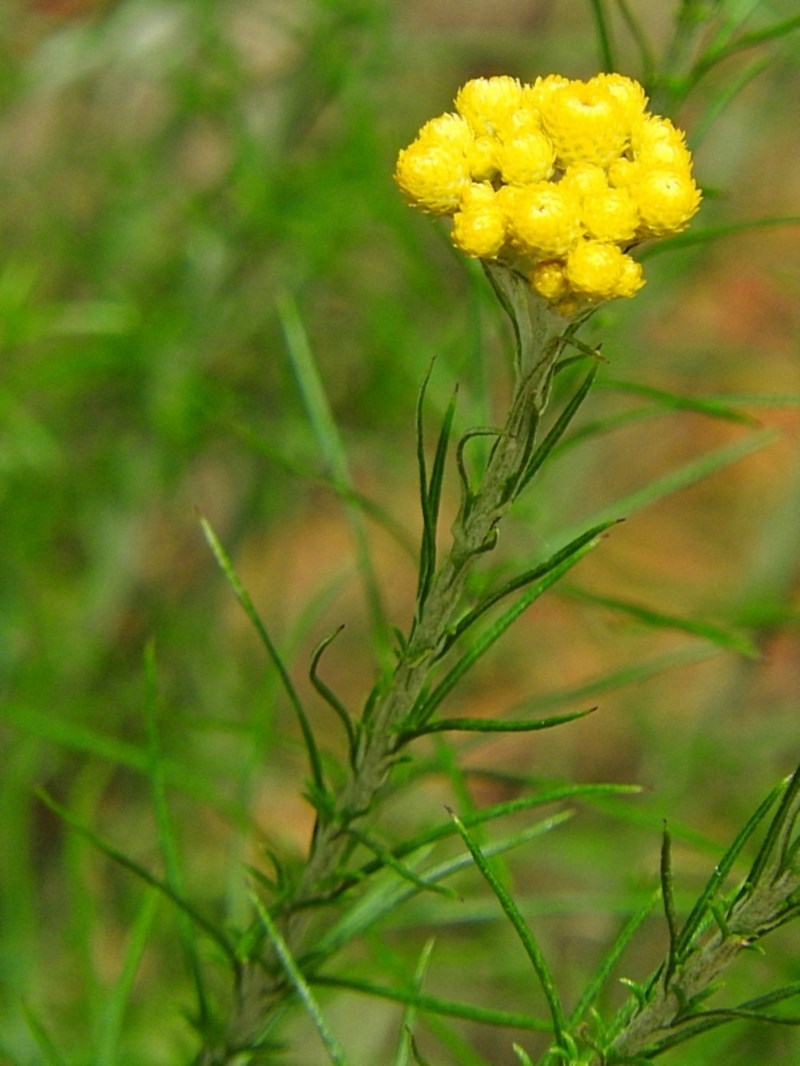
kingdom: Plantae
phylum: Tracheophyta
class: Magnoliopsida
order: Asterales
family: Asteraceae
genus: Chrysocephalum
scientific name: Chrysocephalum semipapposum
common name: Clustered everlasting
